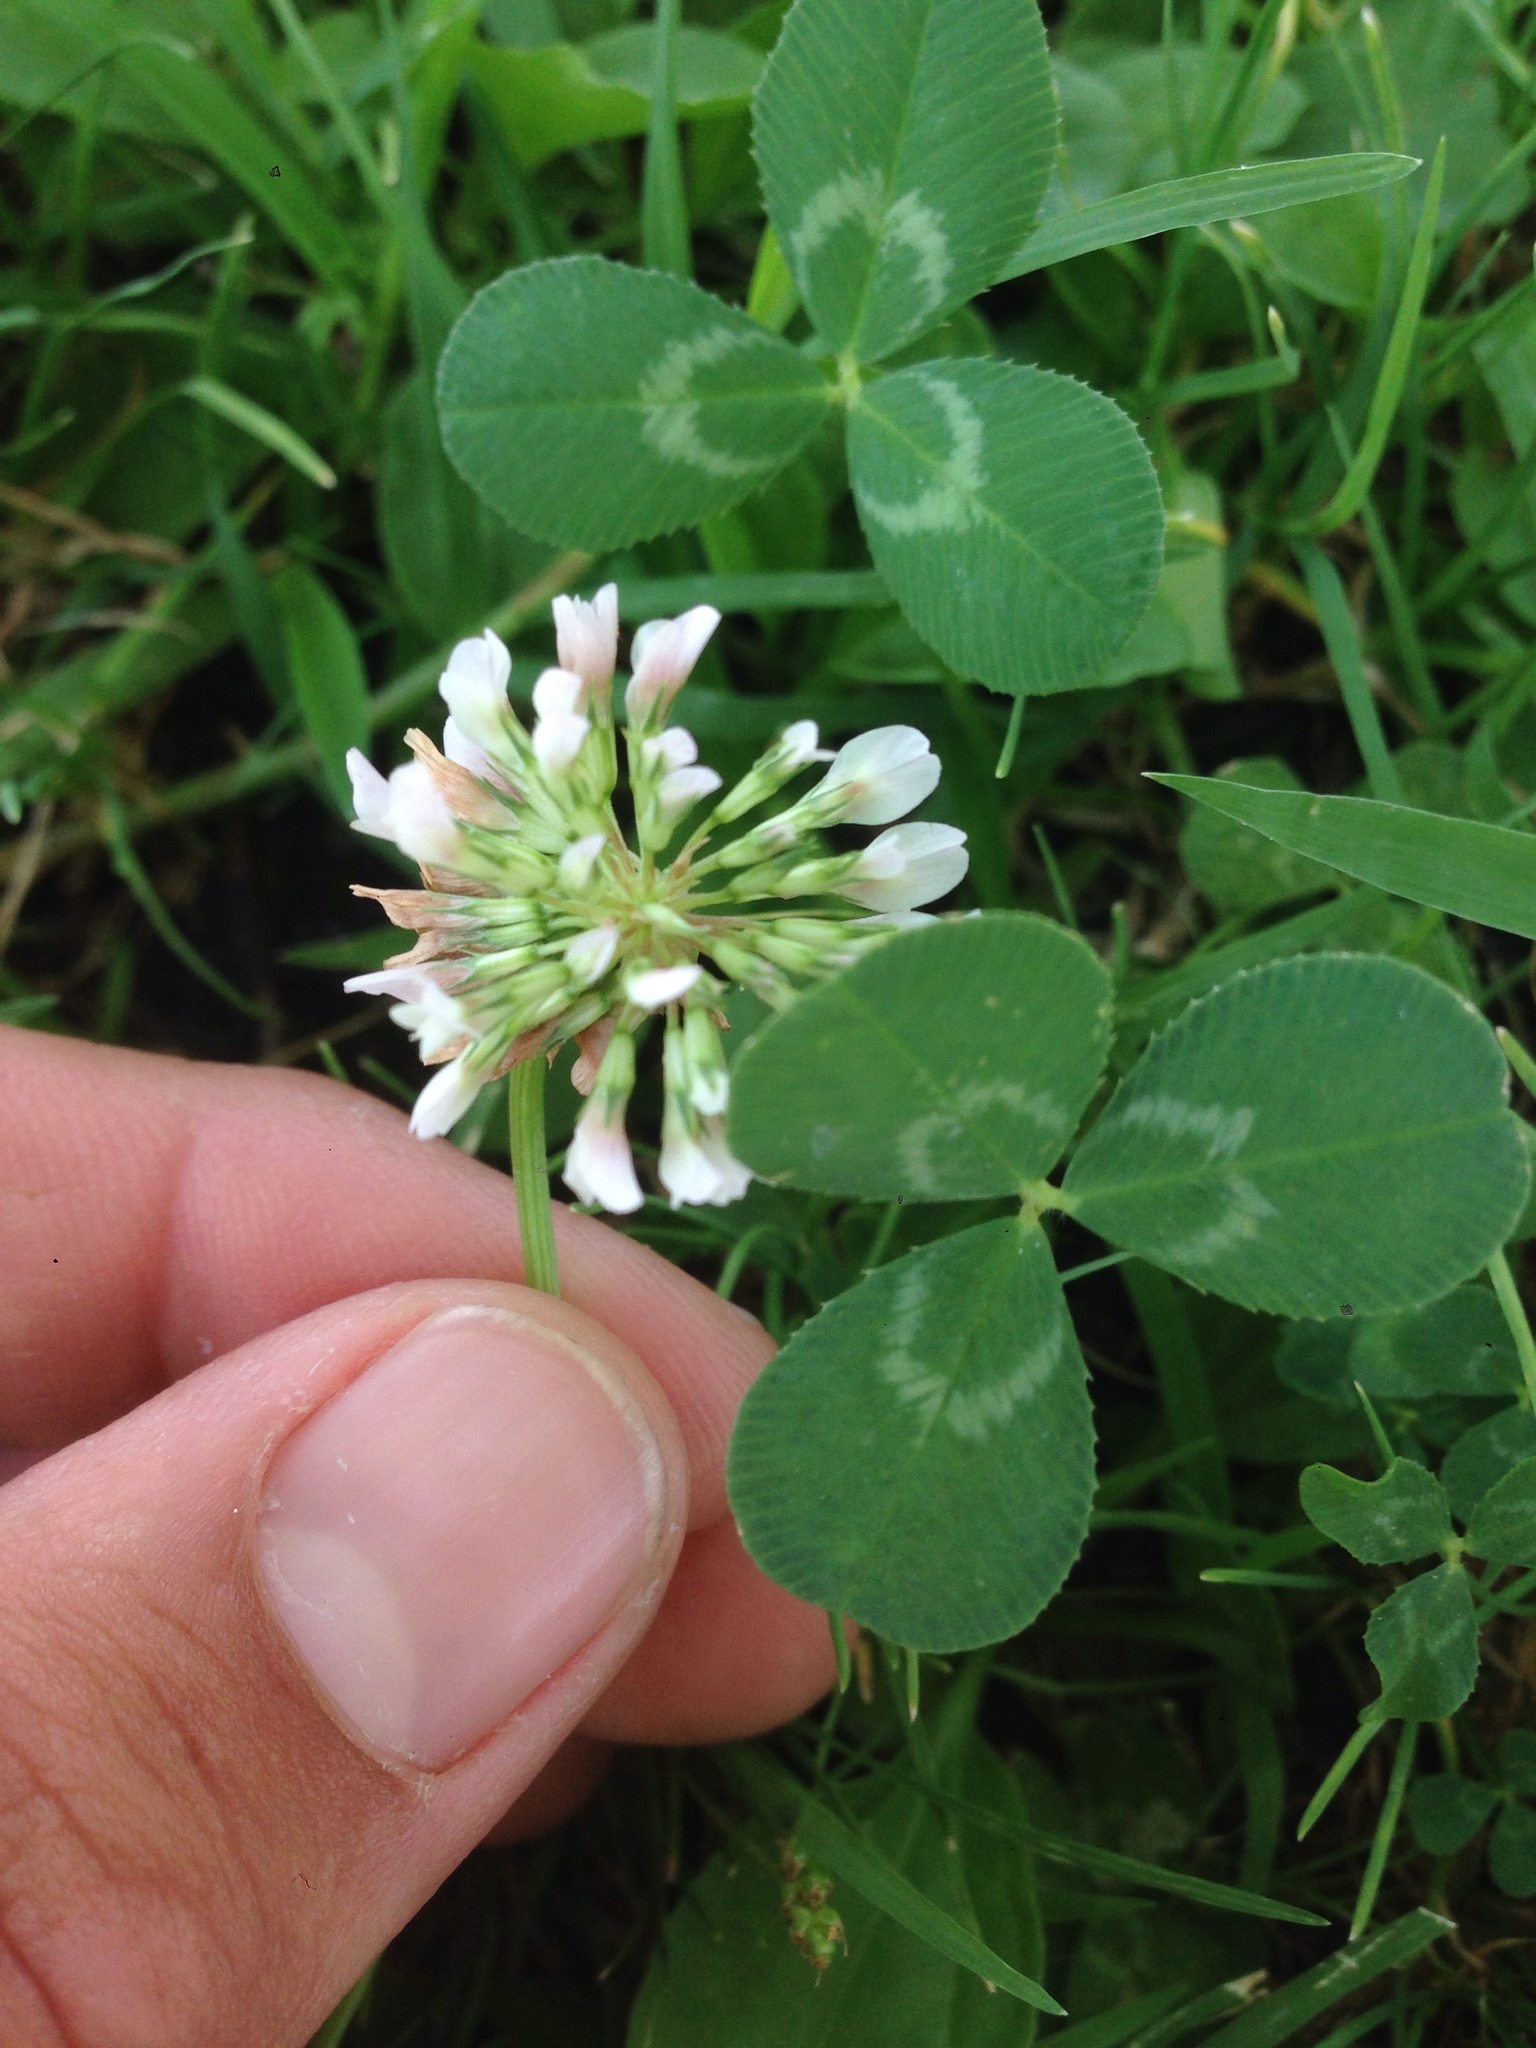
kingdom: Plantae
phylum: Tracheophyta
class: Magnoliopsida
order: Fabales
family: Fabaceae
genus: Trifolium
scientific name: Trifolium repens
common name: White clover
